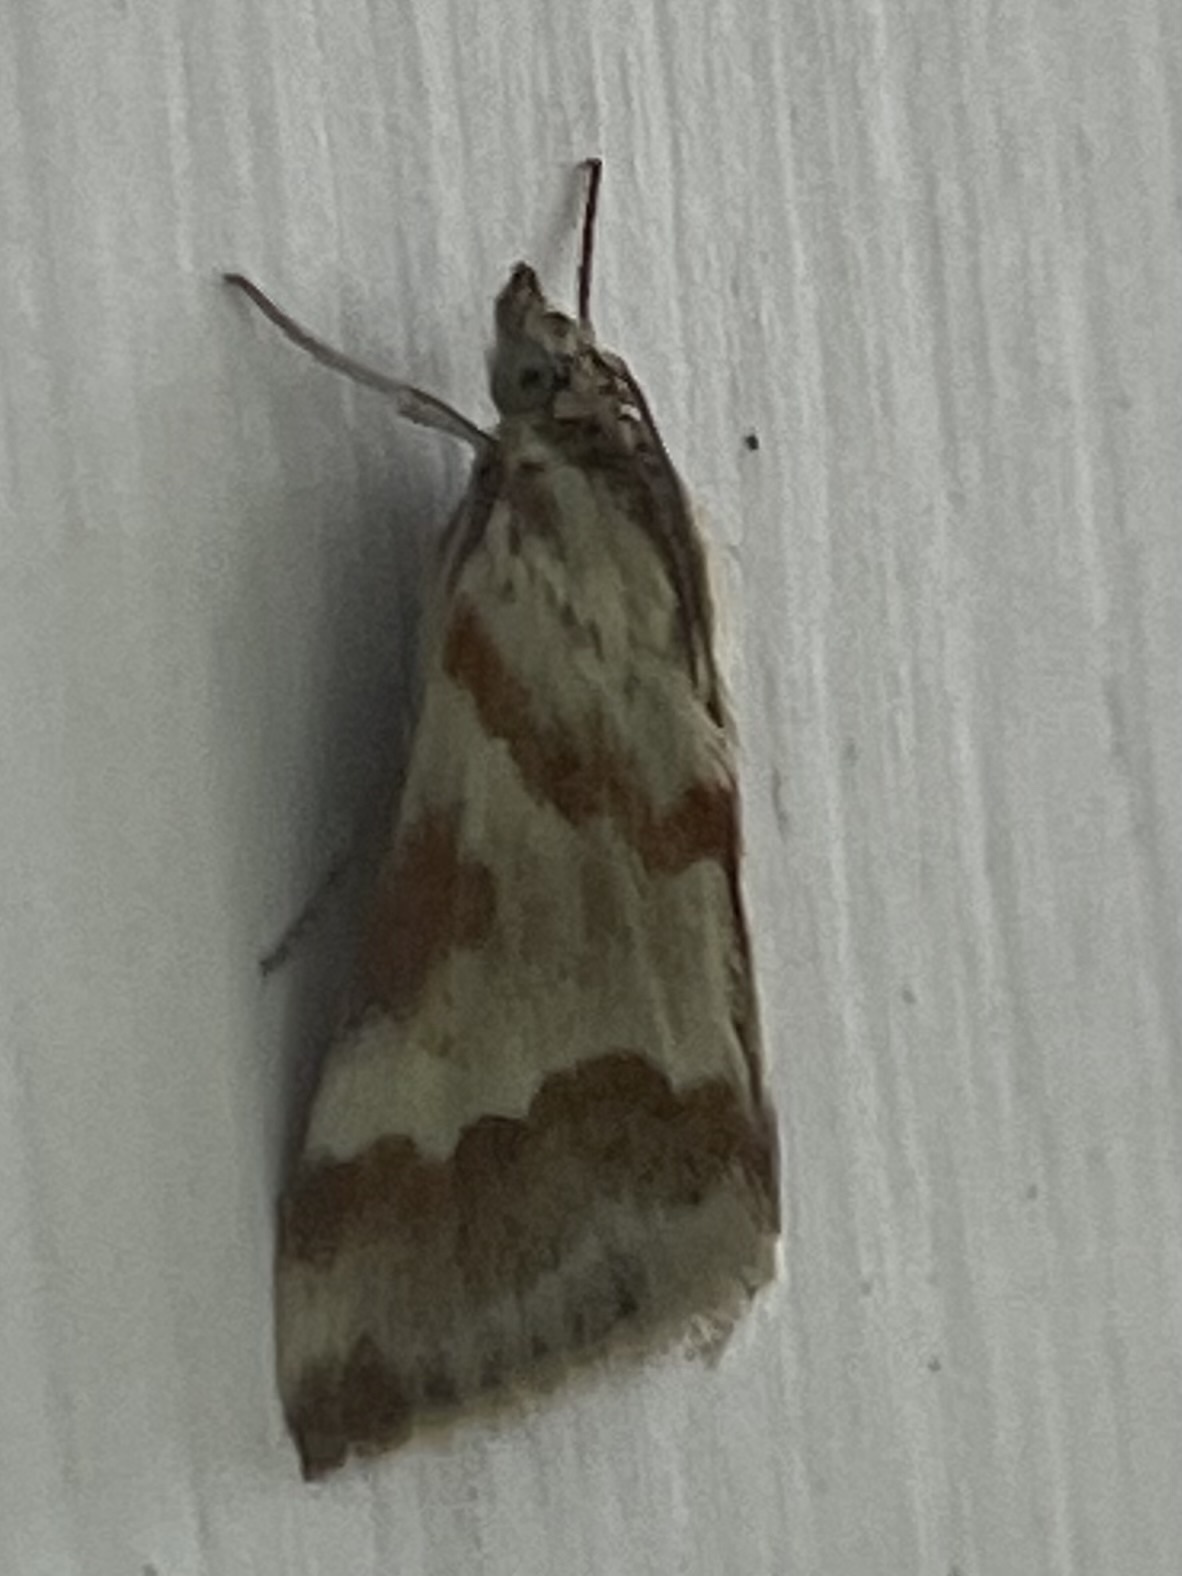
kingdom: Animalia
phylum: Arthropoda
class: Insecta
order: Lepidoptera
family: Crambidae
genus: Noctuelia
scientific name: Noctuelia Mimoschinia rufofascialis
